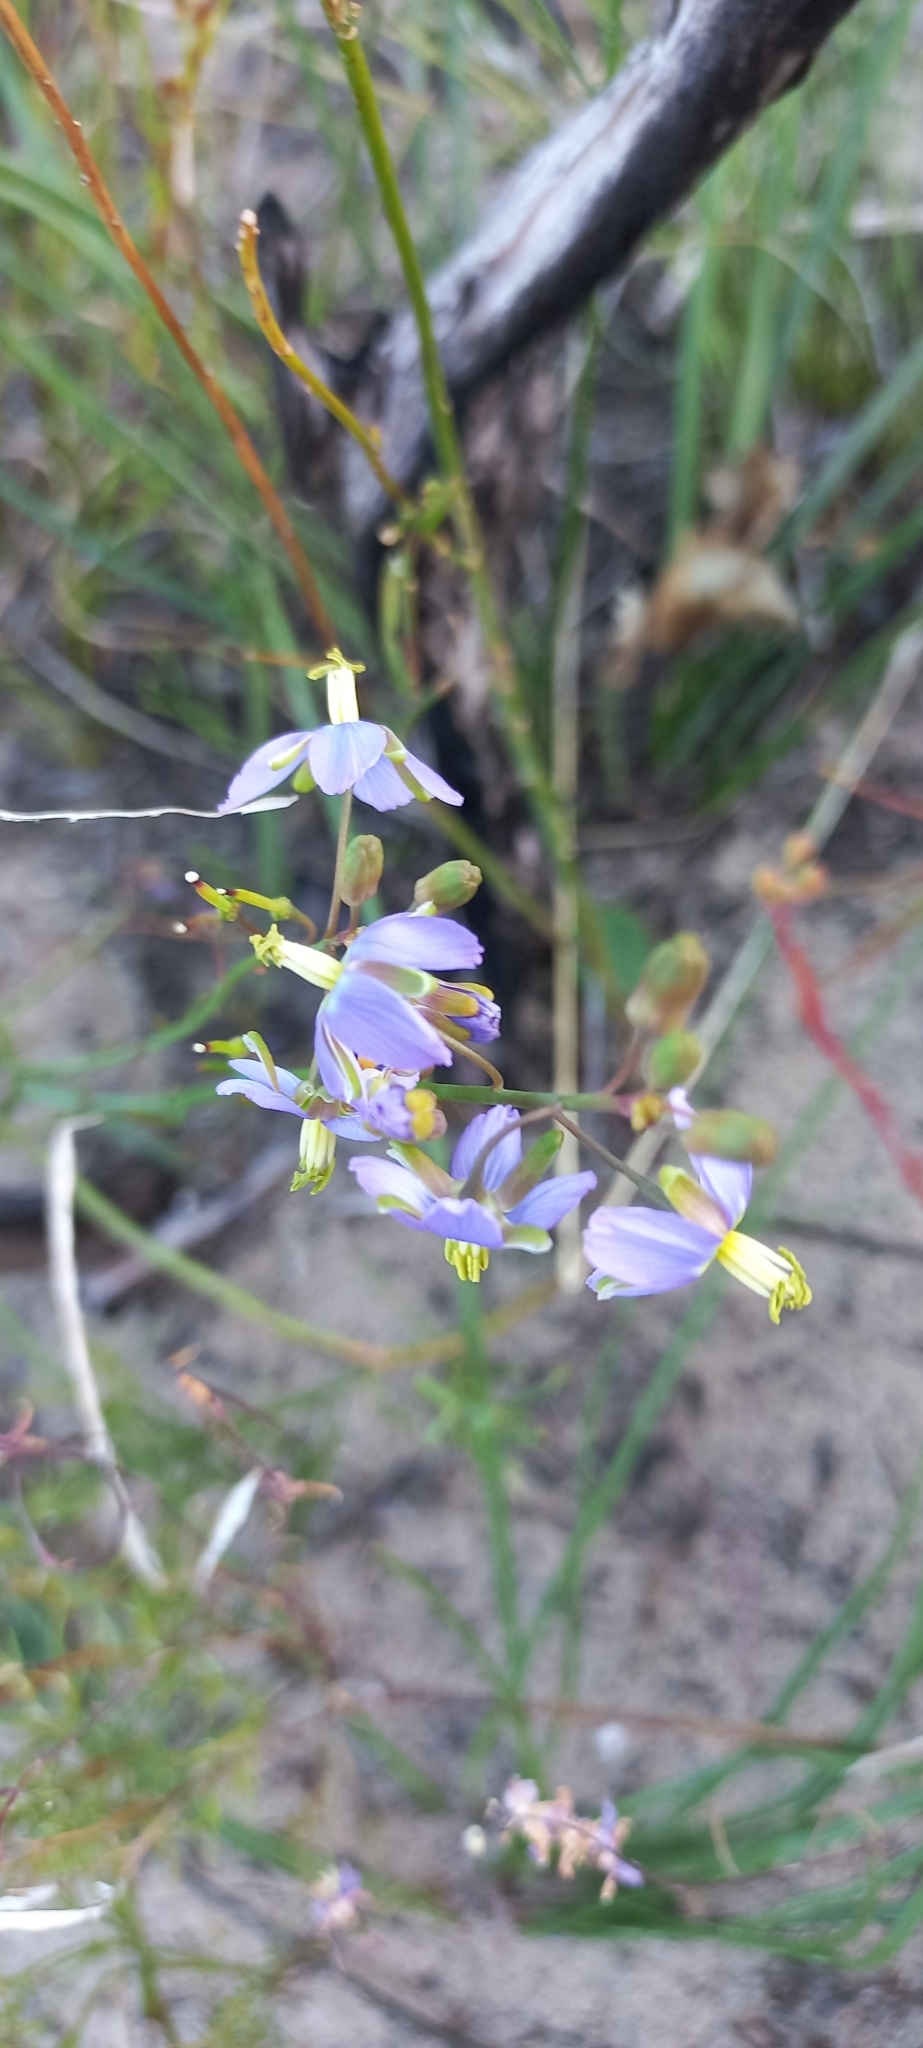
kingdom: Plantae
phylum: Tracheophyta
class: Magnoliopsida
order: Brassicales
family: Brassicaceae
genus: Heliophila
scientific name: Heliophila linearis
